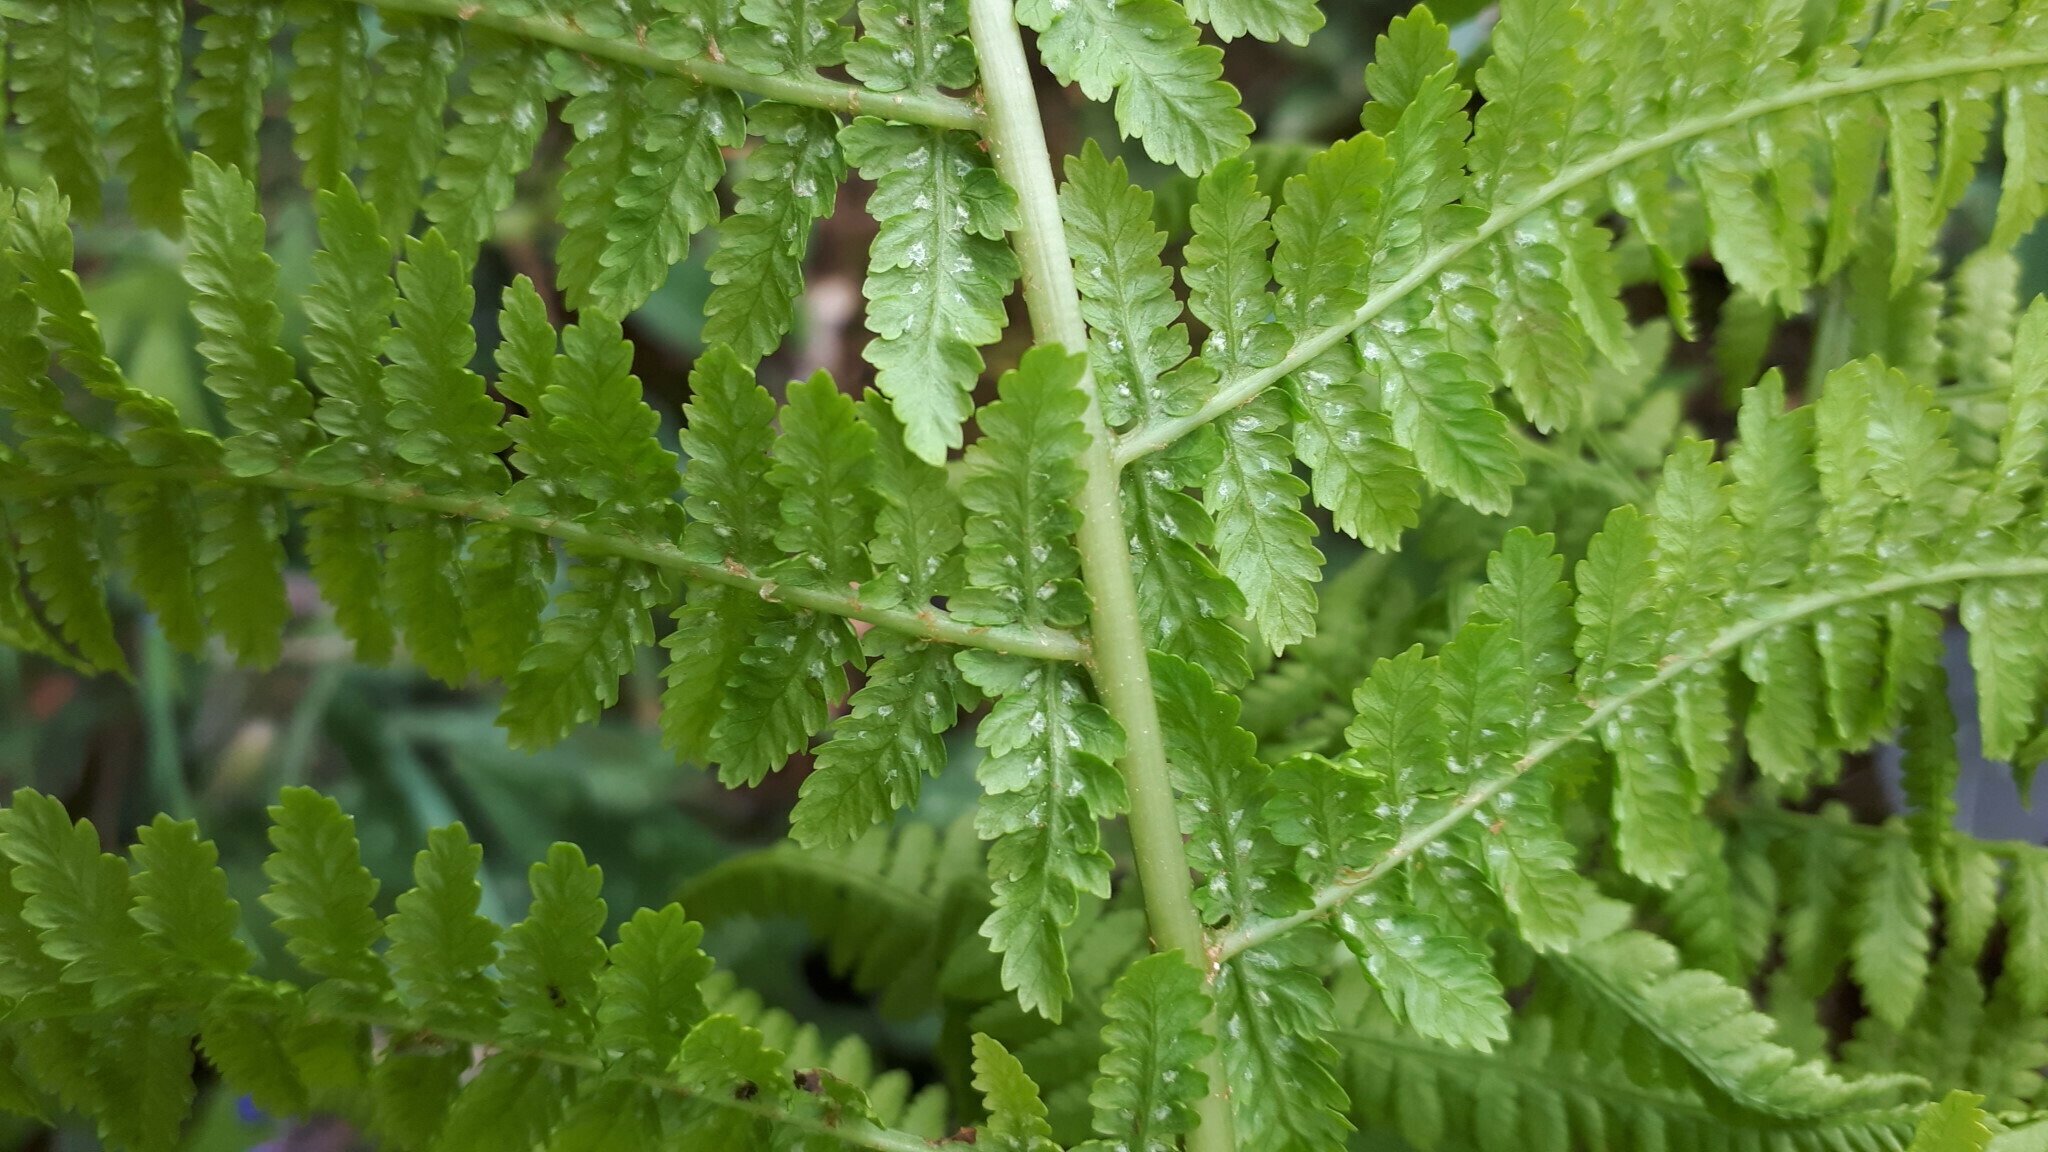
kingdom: Plantae
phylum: Tracheophyta
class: Polypodiopsida
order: Polypodiales
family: Athyriaceae
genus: Athyrium
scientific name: Athyrium filix-femina
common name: Lady fern
